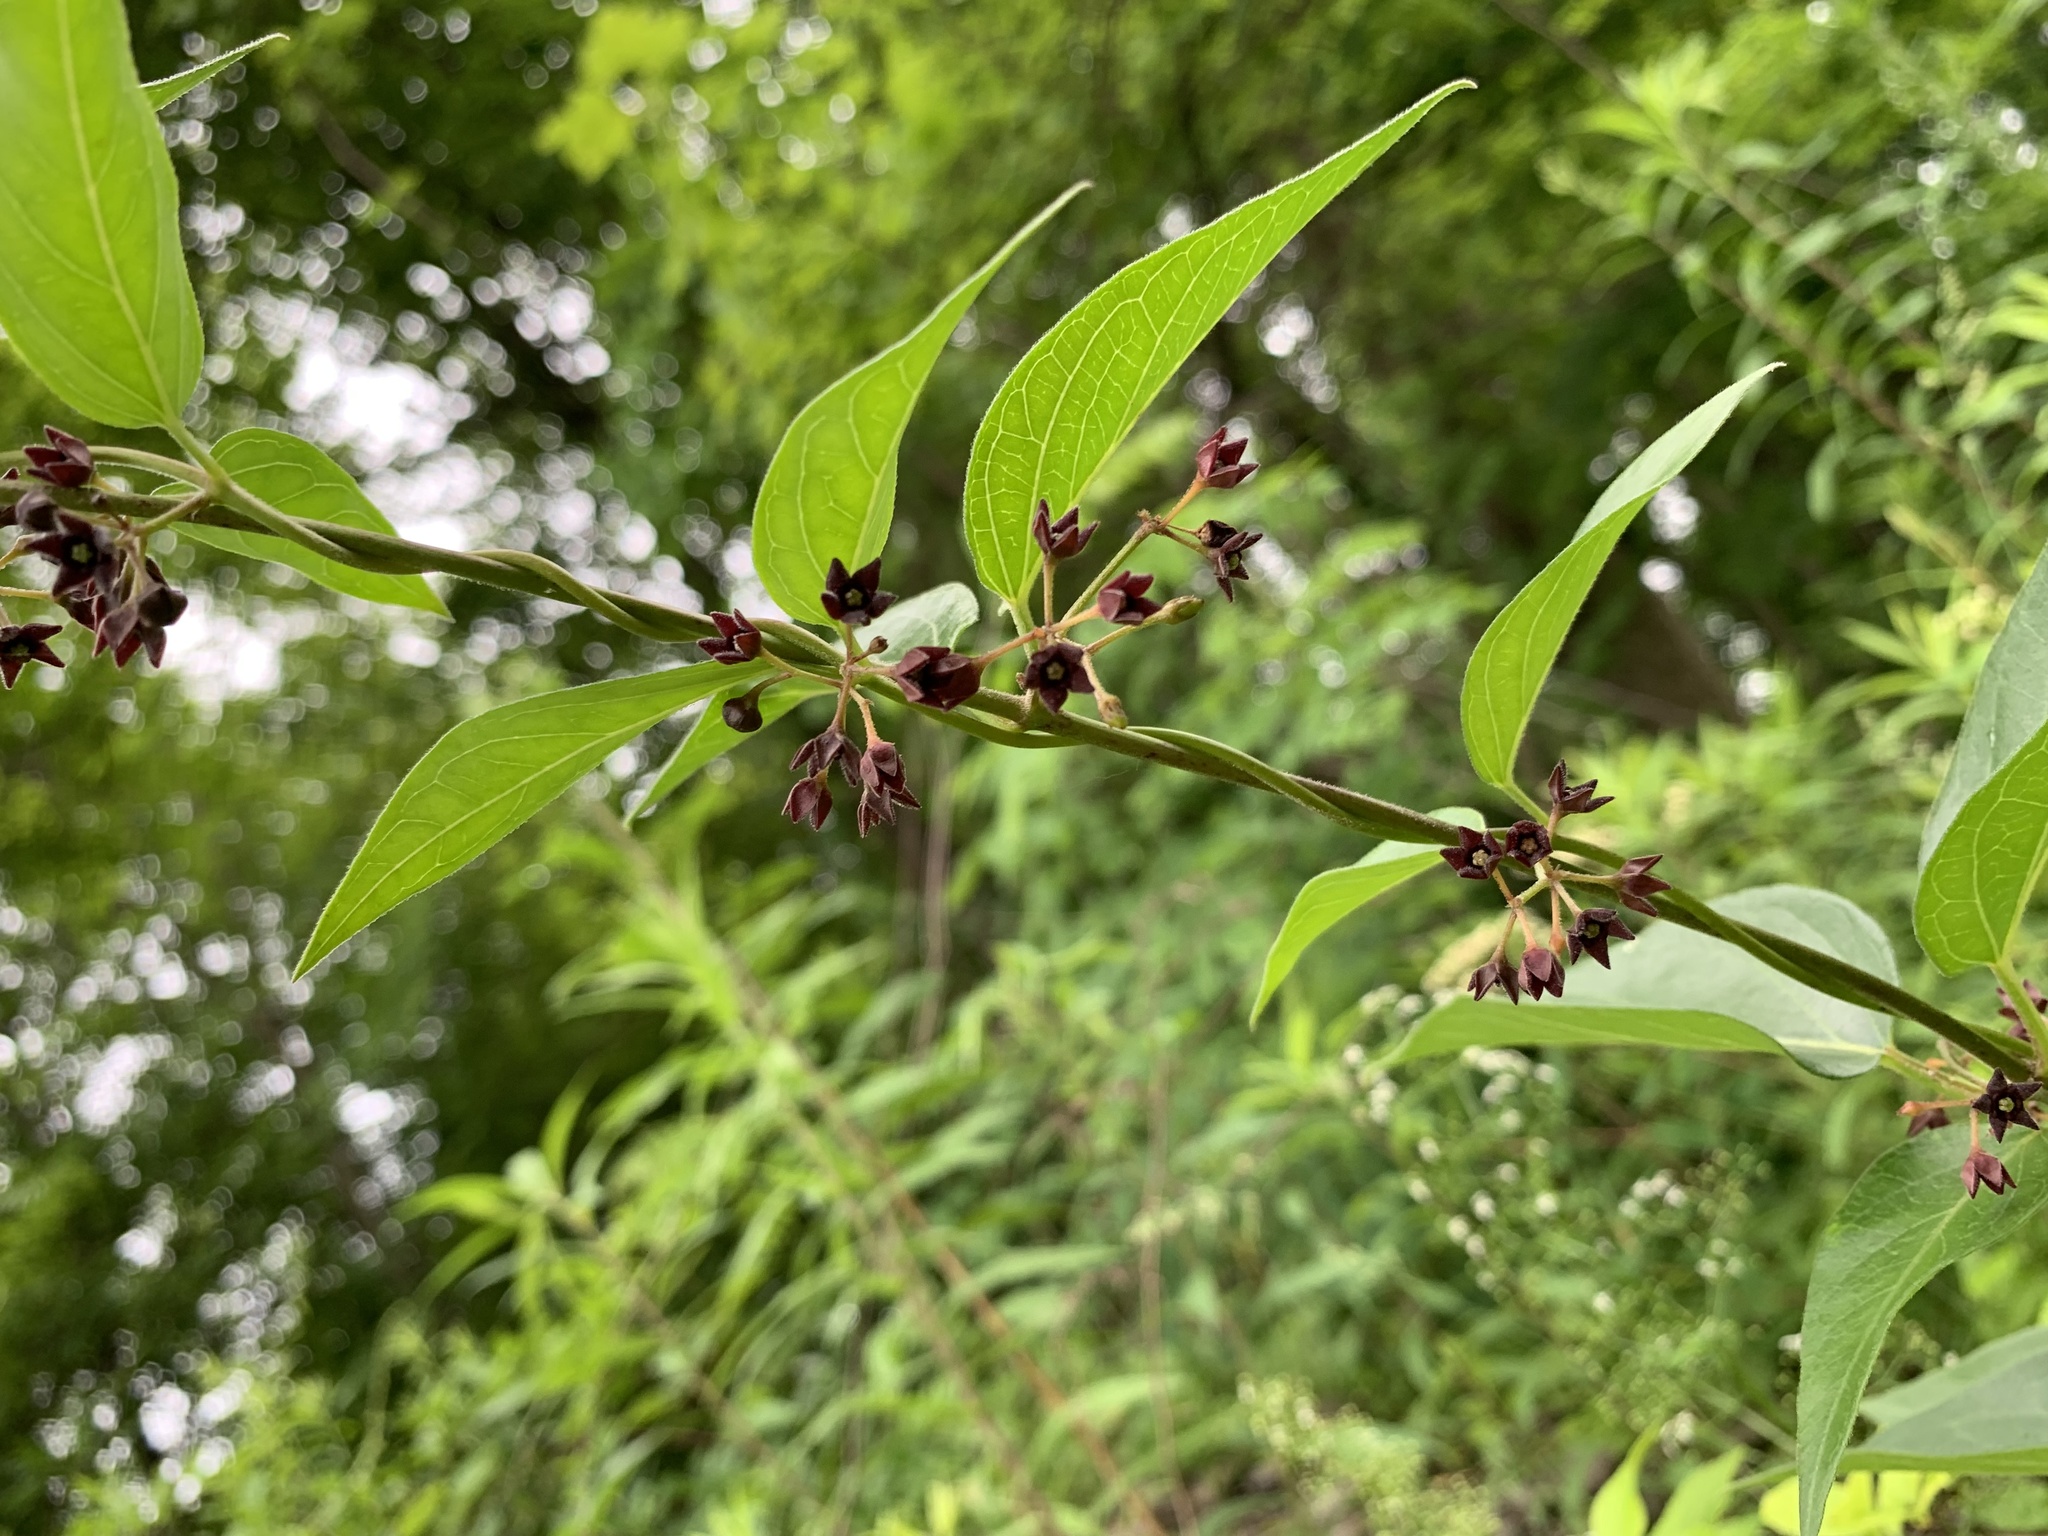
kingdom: Plantae
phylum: Tracheophyta
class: Magnoliopsida
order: Gentianales
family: Apocynaceae
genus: Vincetoxicum
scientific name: Vincetoxicum nigrum
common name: Black swallow-wort
